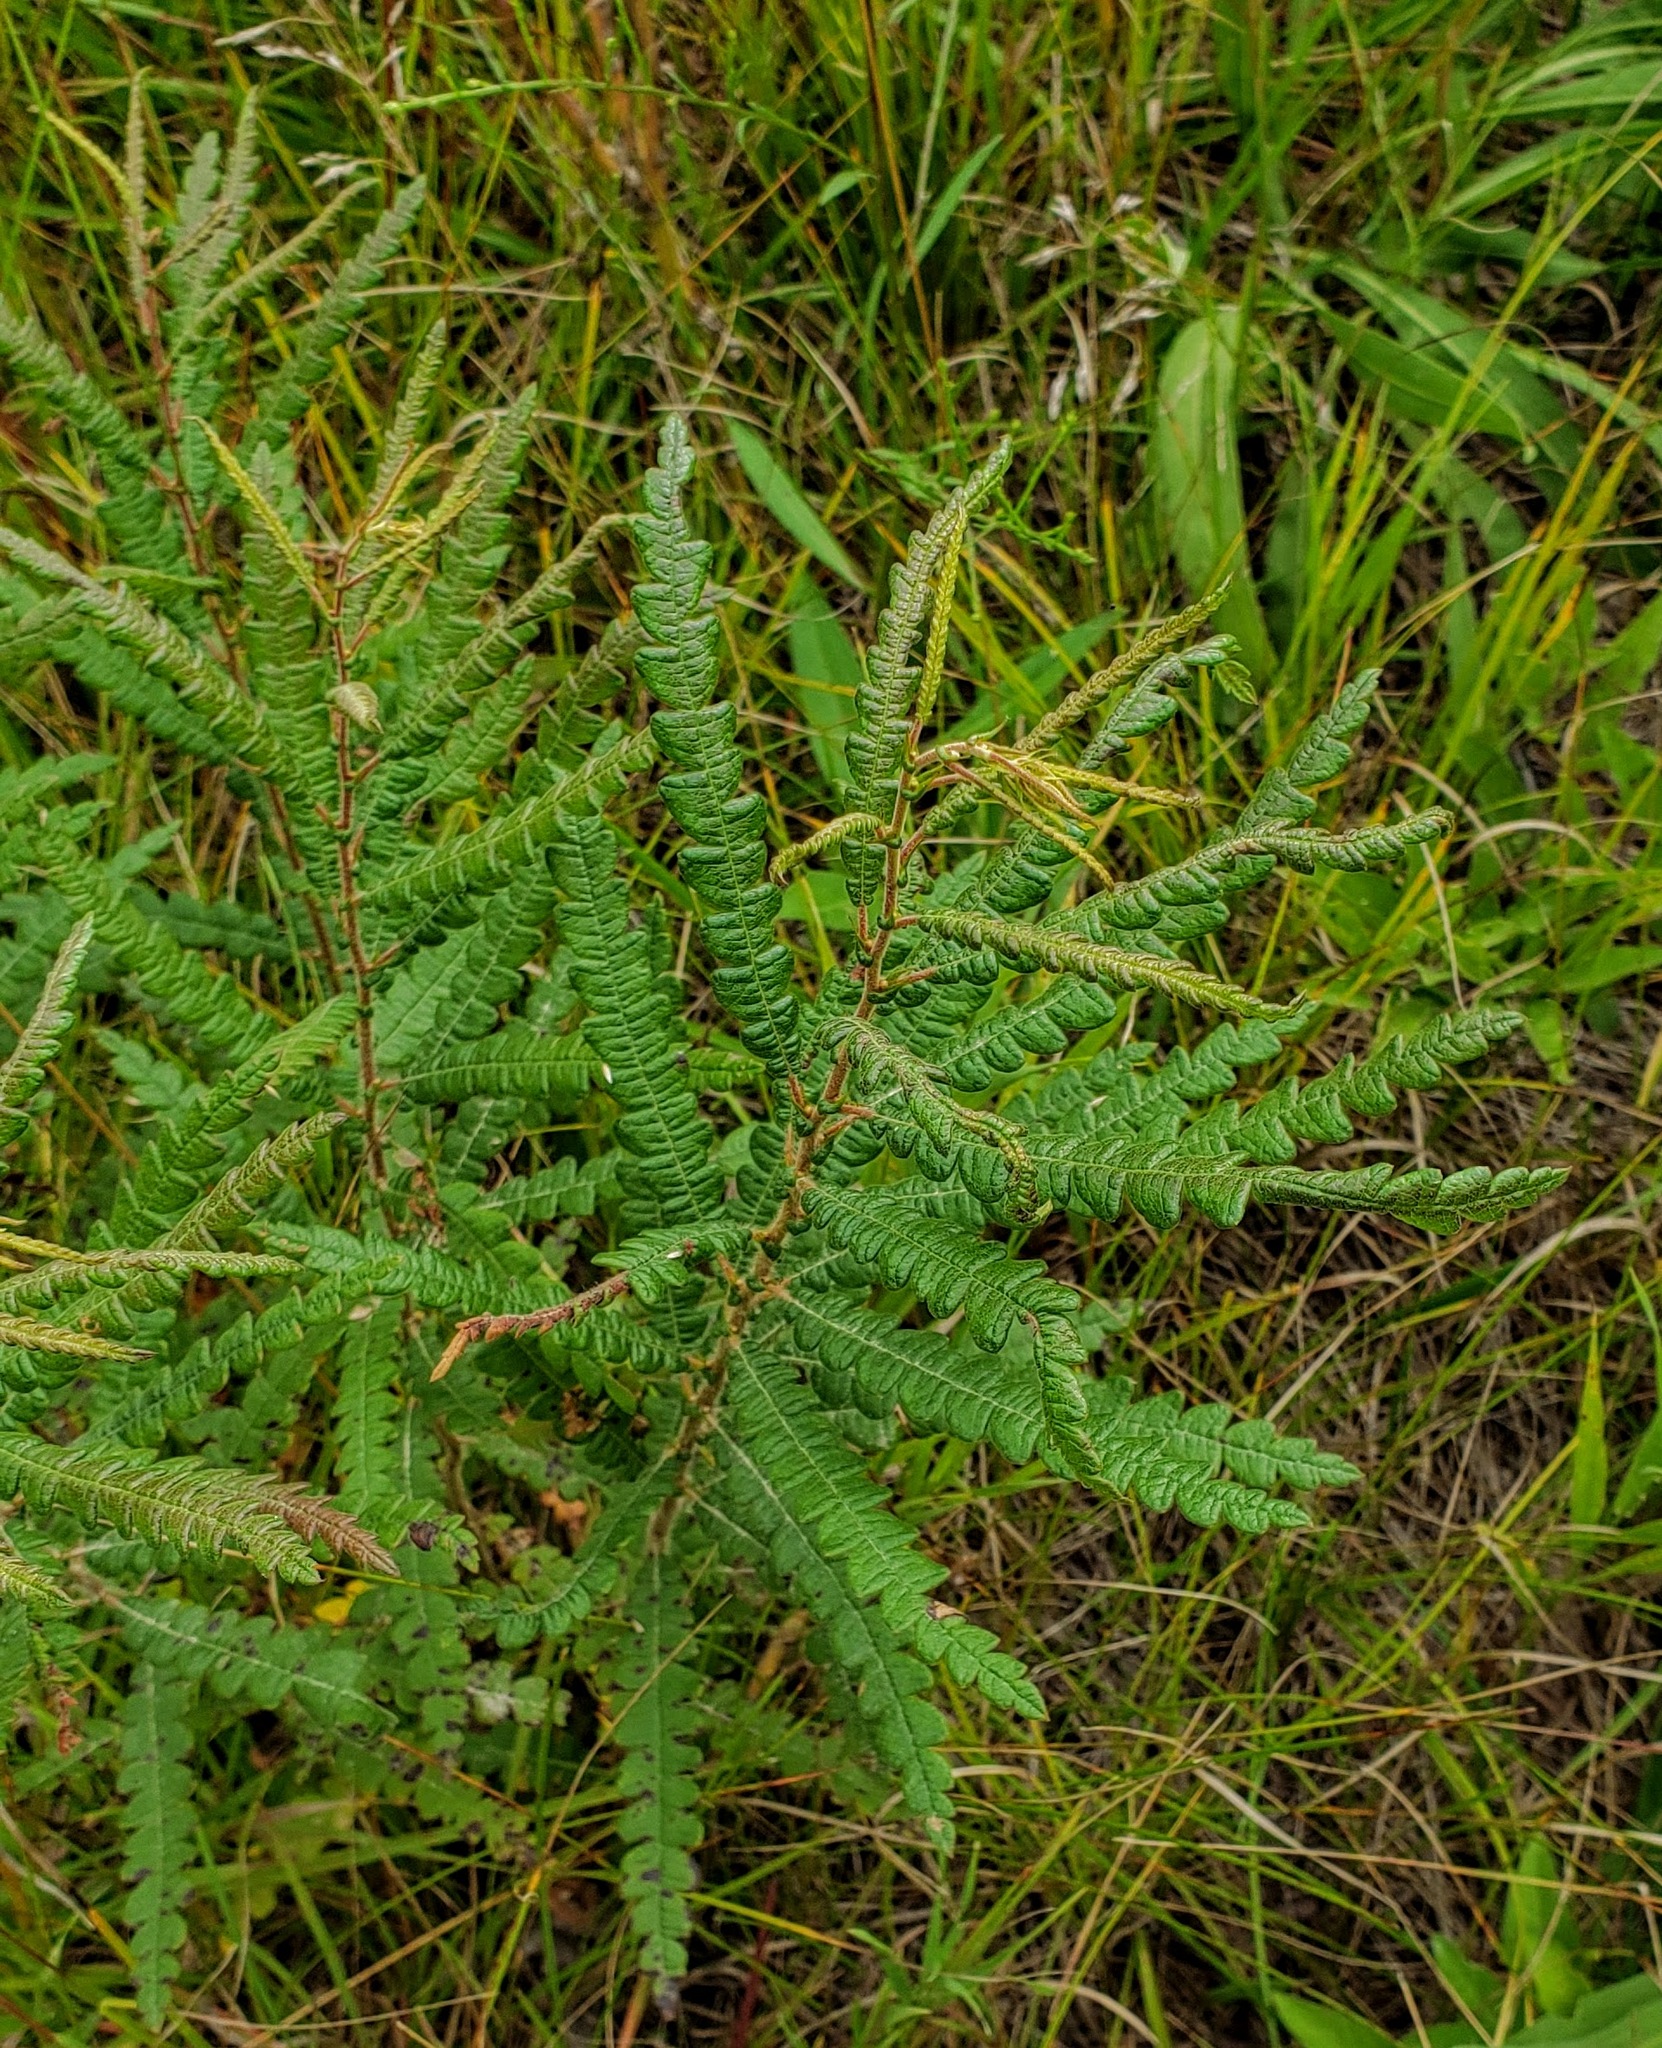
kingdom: Plantae
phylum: Tracheophyta
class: Magnoliopsida
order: Fagales
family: Myricaceae
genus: Comptonia
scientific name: Comptonia peregrina
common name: Sweet-fern
